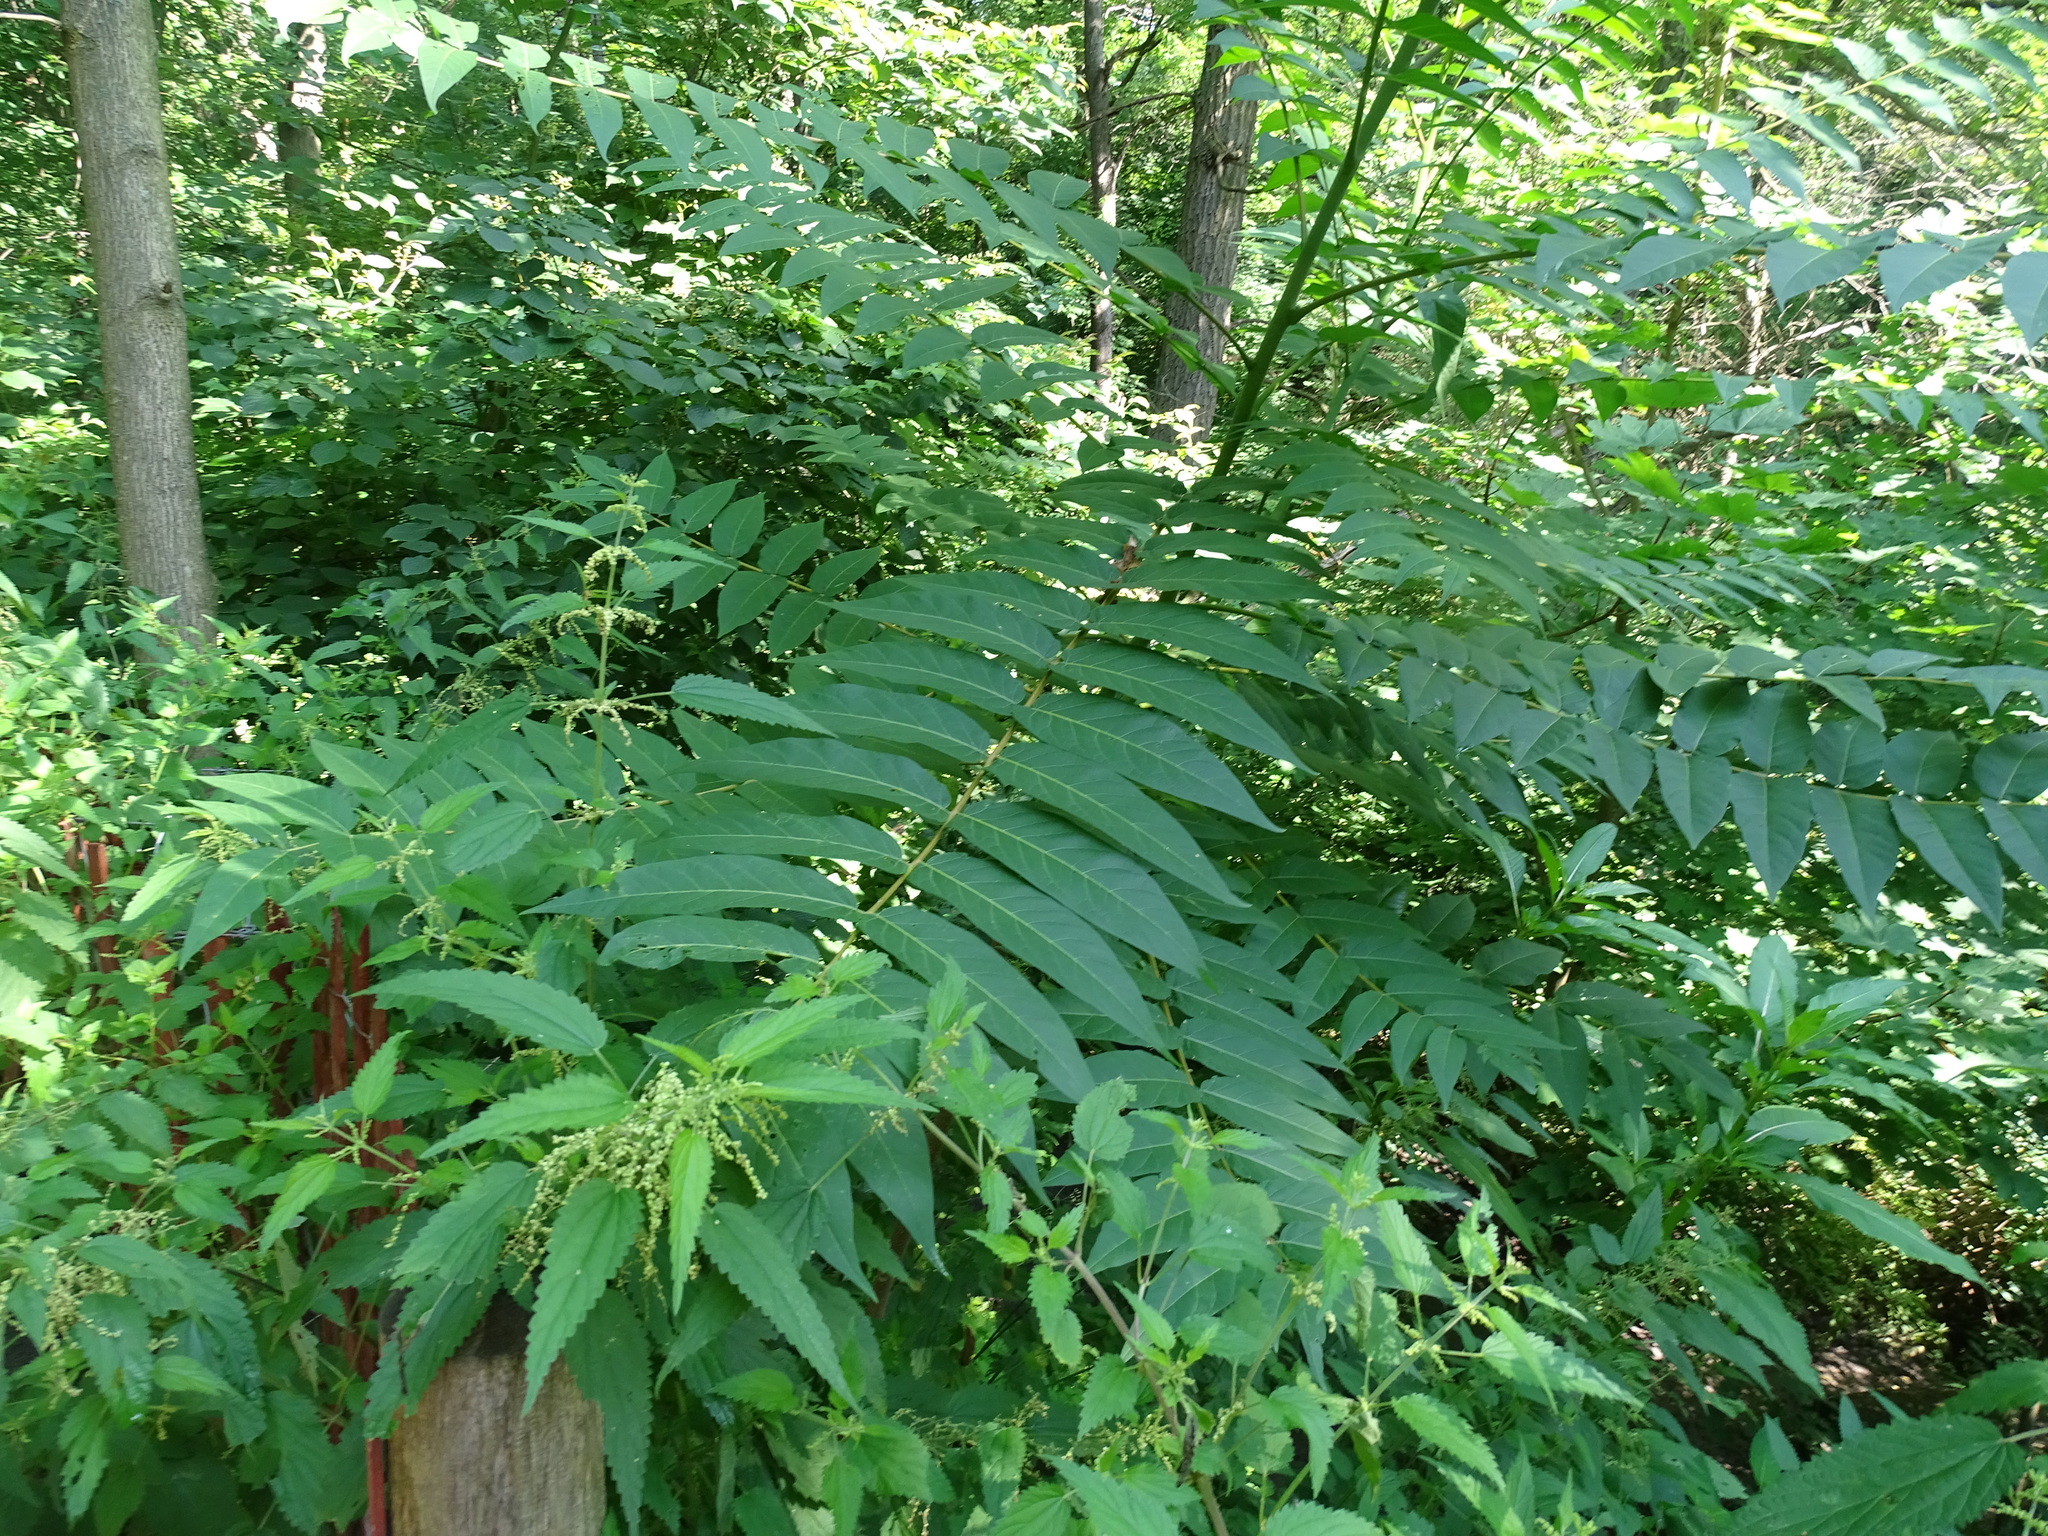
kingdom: Plantae
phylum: Tracheophyta
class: Magnoliopsida
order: Sapindales
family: Simaroubaceae
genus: Ailanthus
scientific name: Ailanthus altissima
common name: Tree-of-heaven
